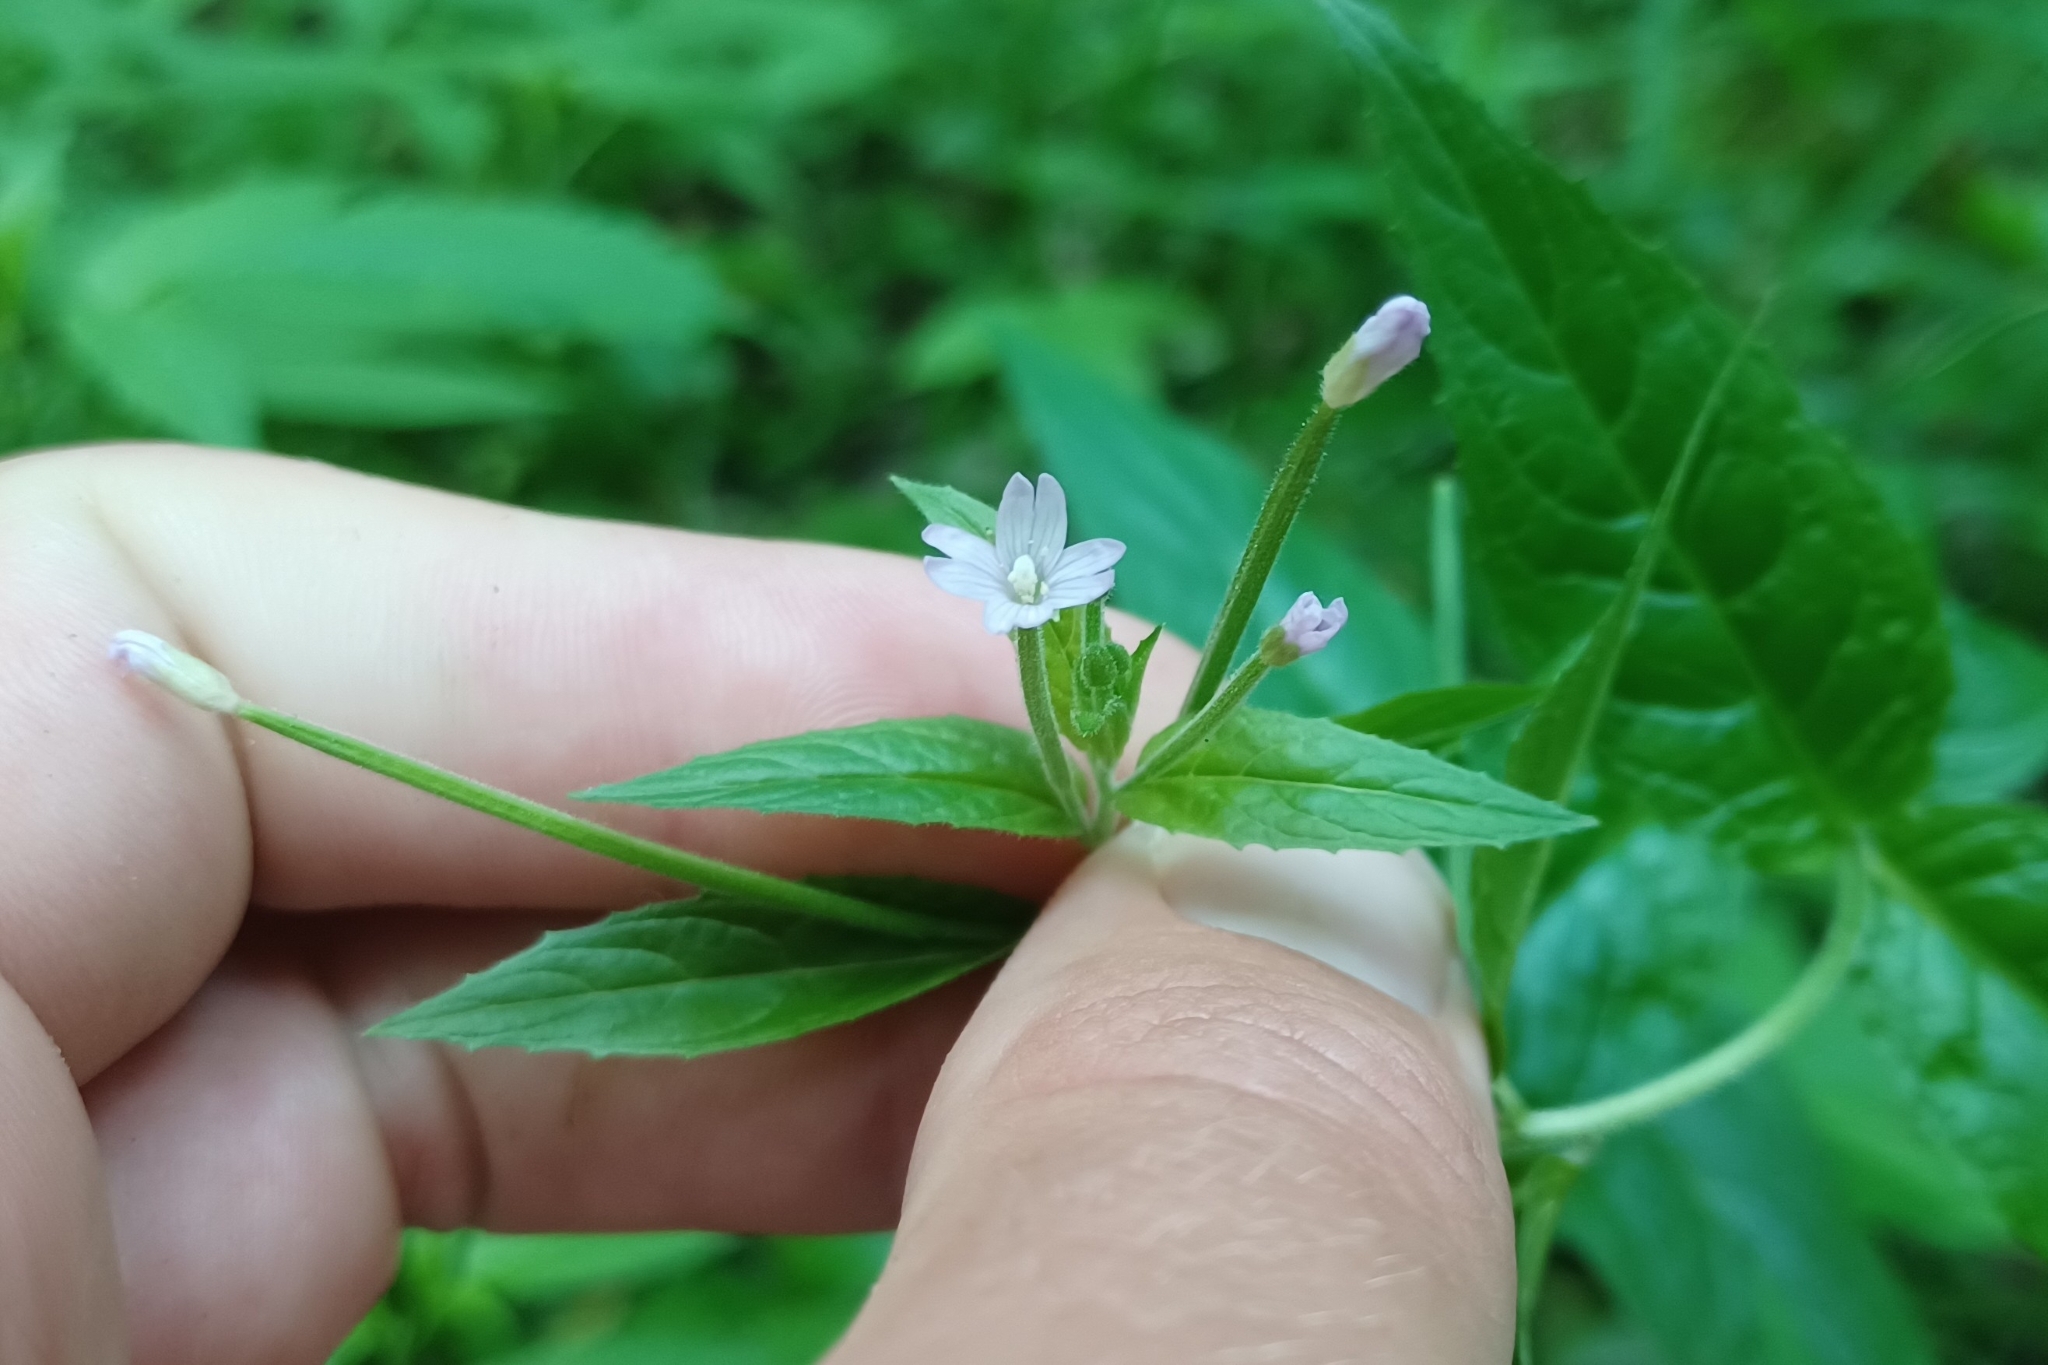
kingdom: Plantae
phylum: Tracheophyta
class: Magnoliopsida
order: Myrtales
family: Onagraceae
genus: Epilobium
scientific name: Epilobium ciliatum
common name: American willowherb
